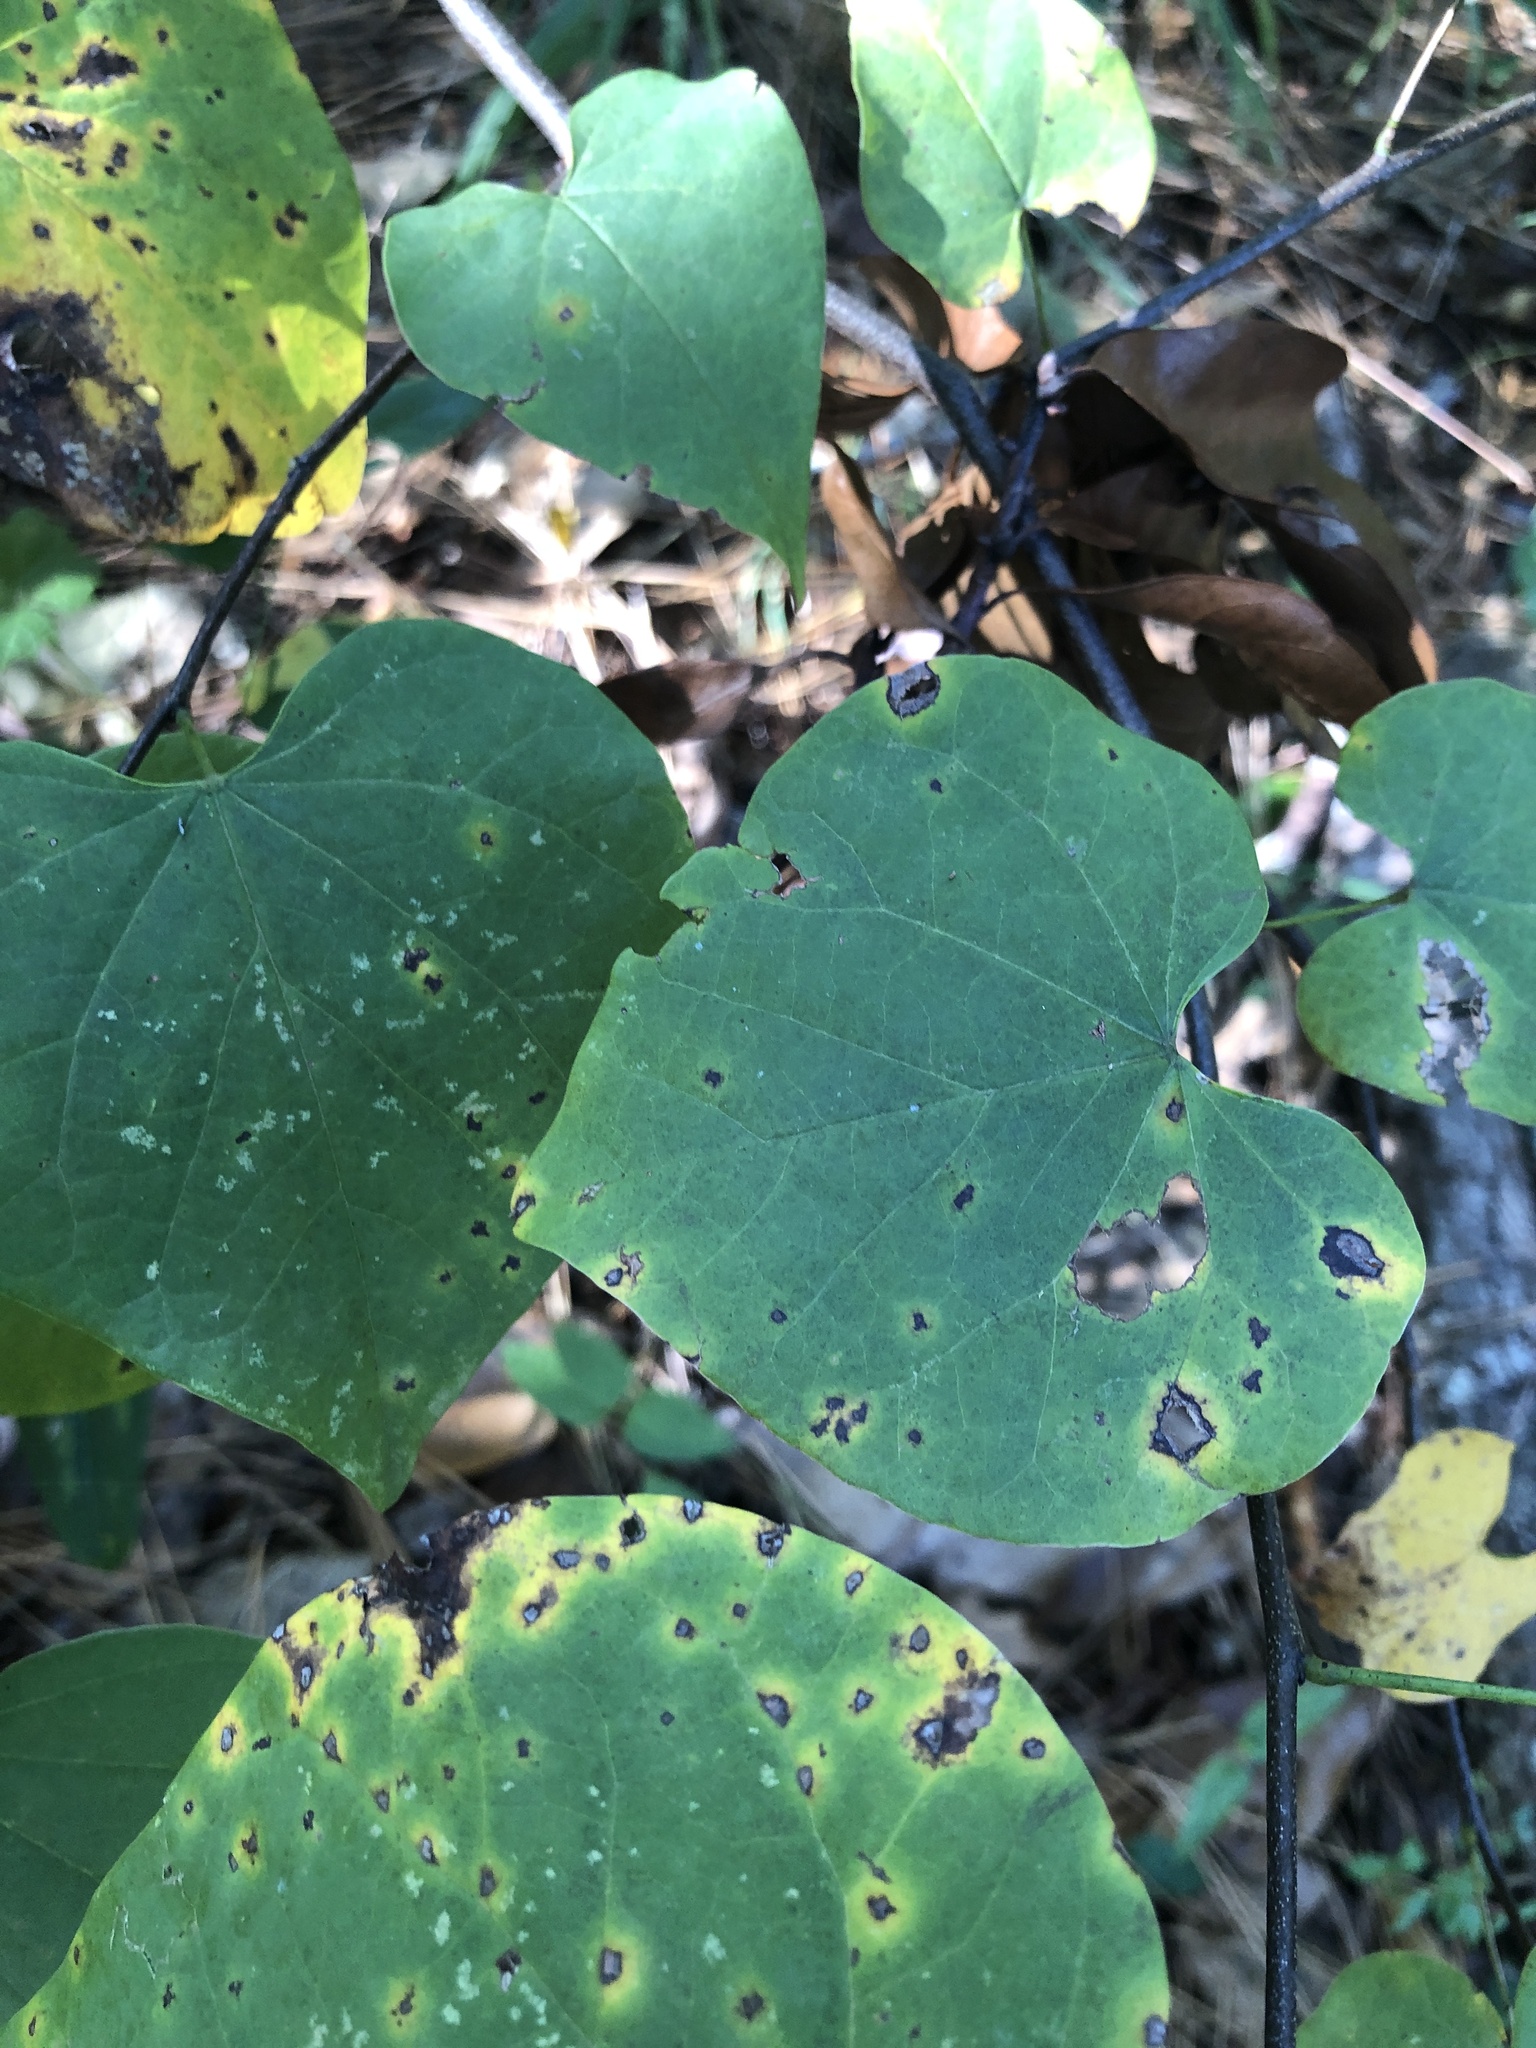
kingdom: Plantae
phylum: Tracheophyta
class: Magnoliopsida
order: Fabales
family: Fabaceae
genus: Cercis
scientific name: Cercis canadensis
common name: Eastern redbud
